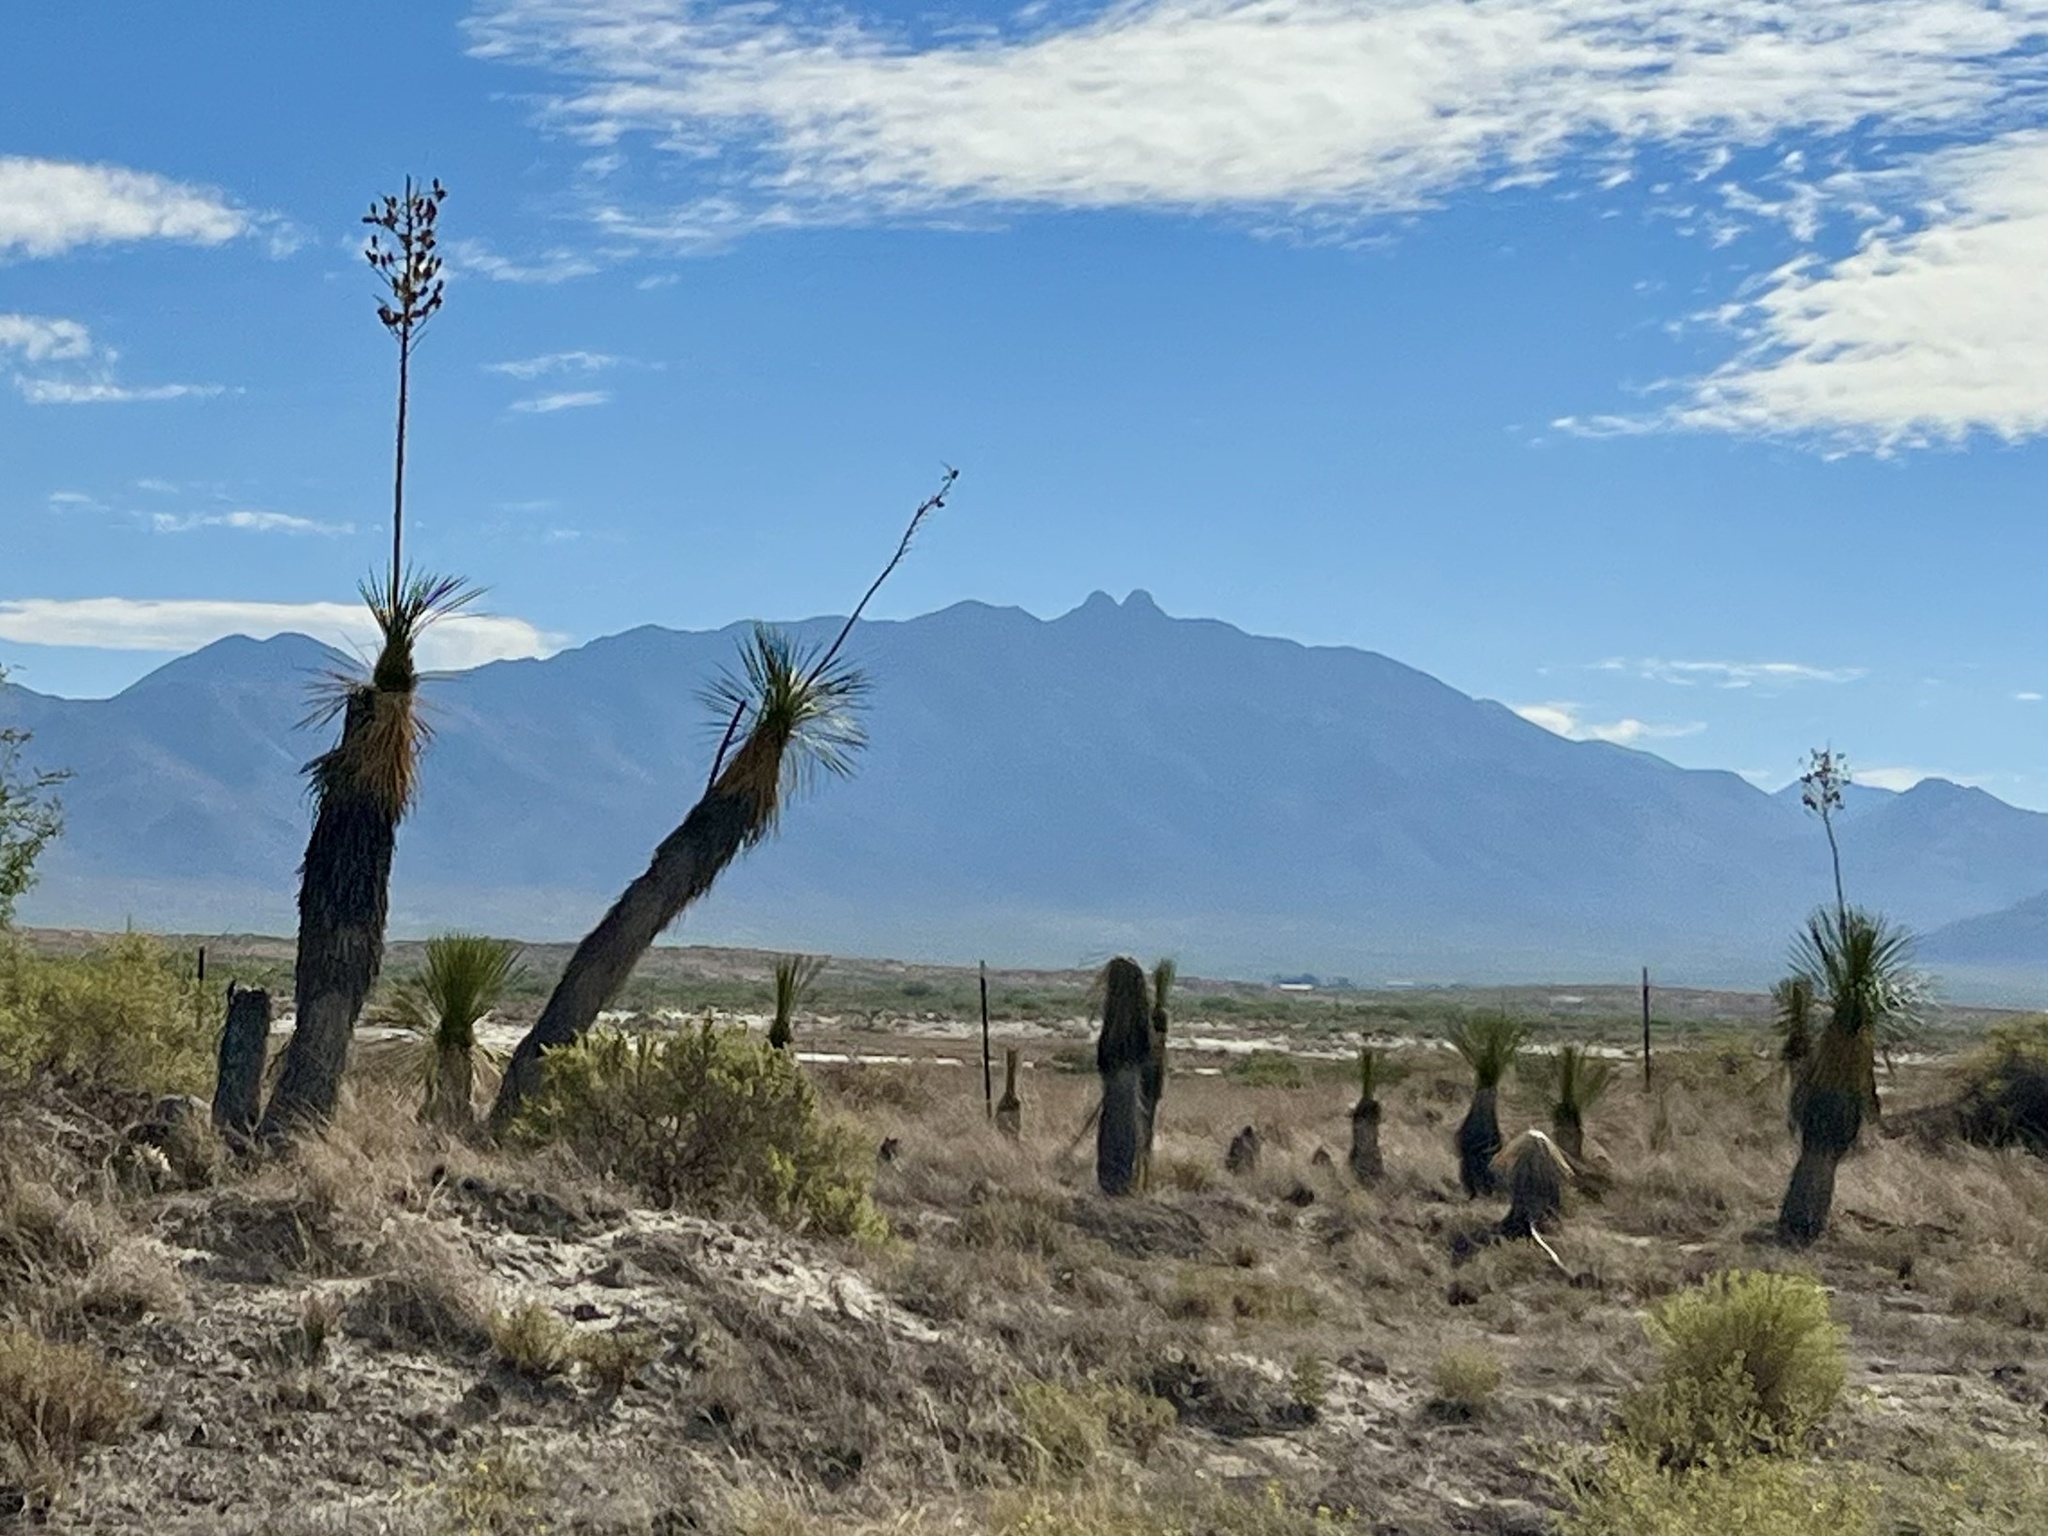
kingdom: Plantae
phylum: Tracheophyta
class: Liliopsida
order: Asparagales
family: Asparagaceae
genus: Yucca
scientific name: Yucca elata
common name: Palmella
